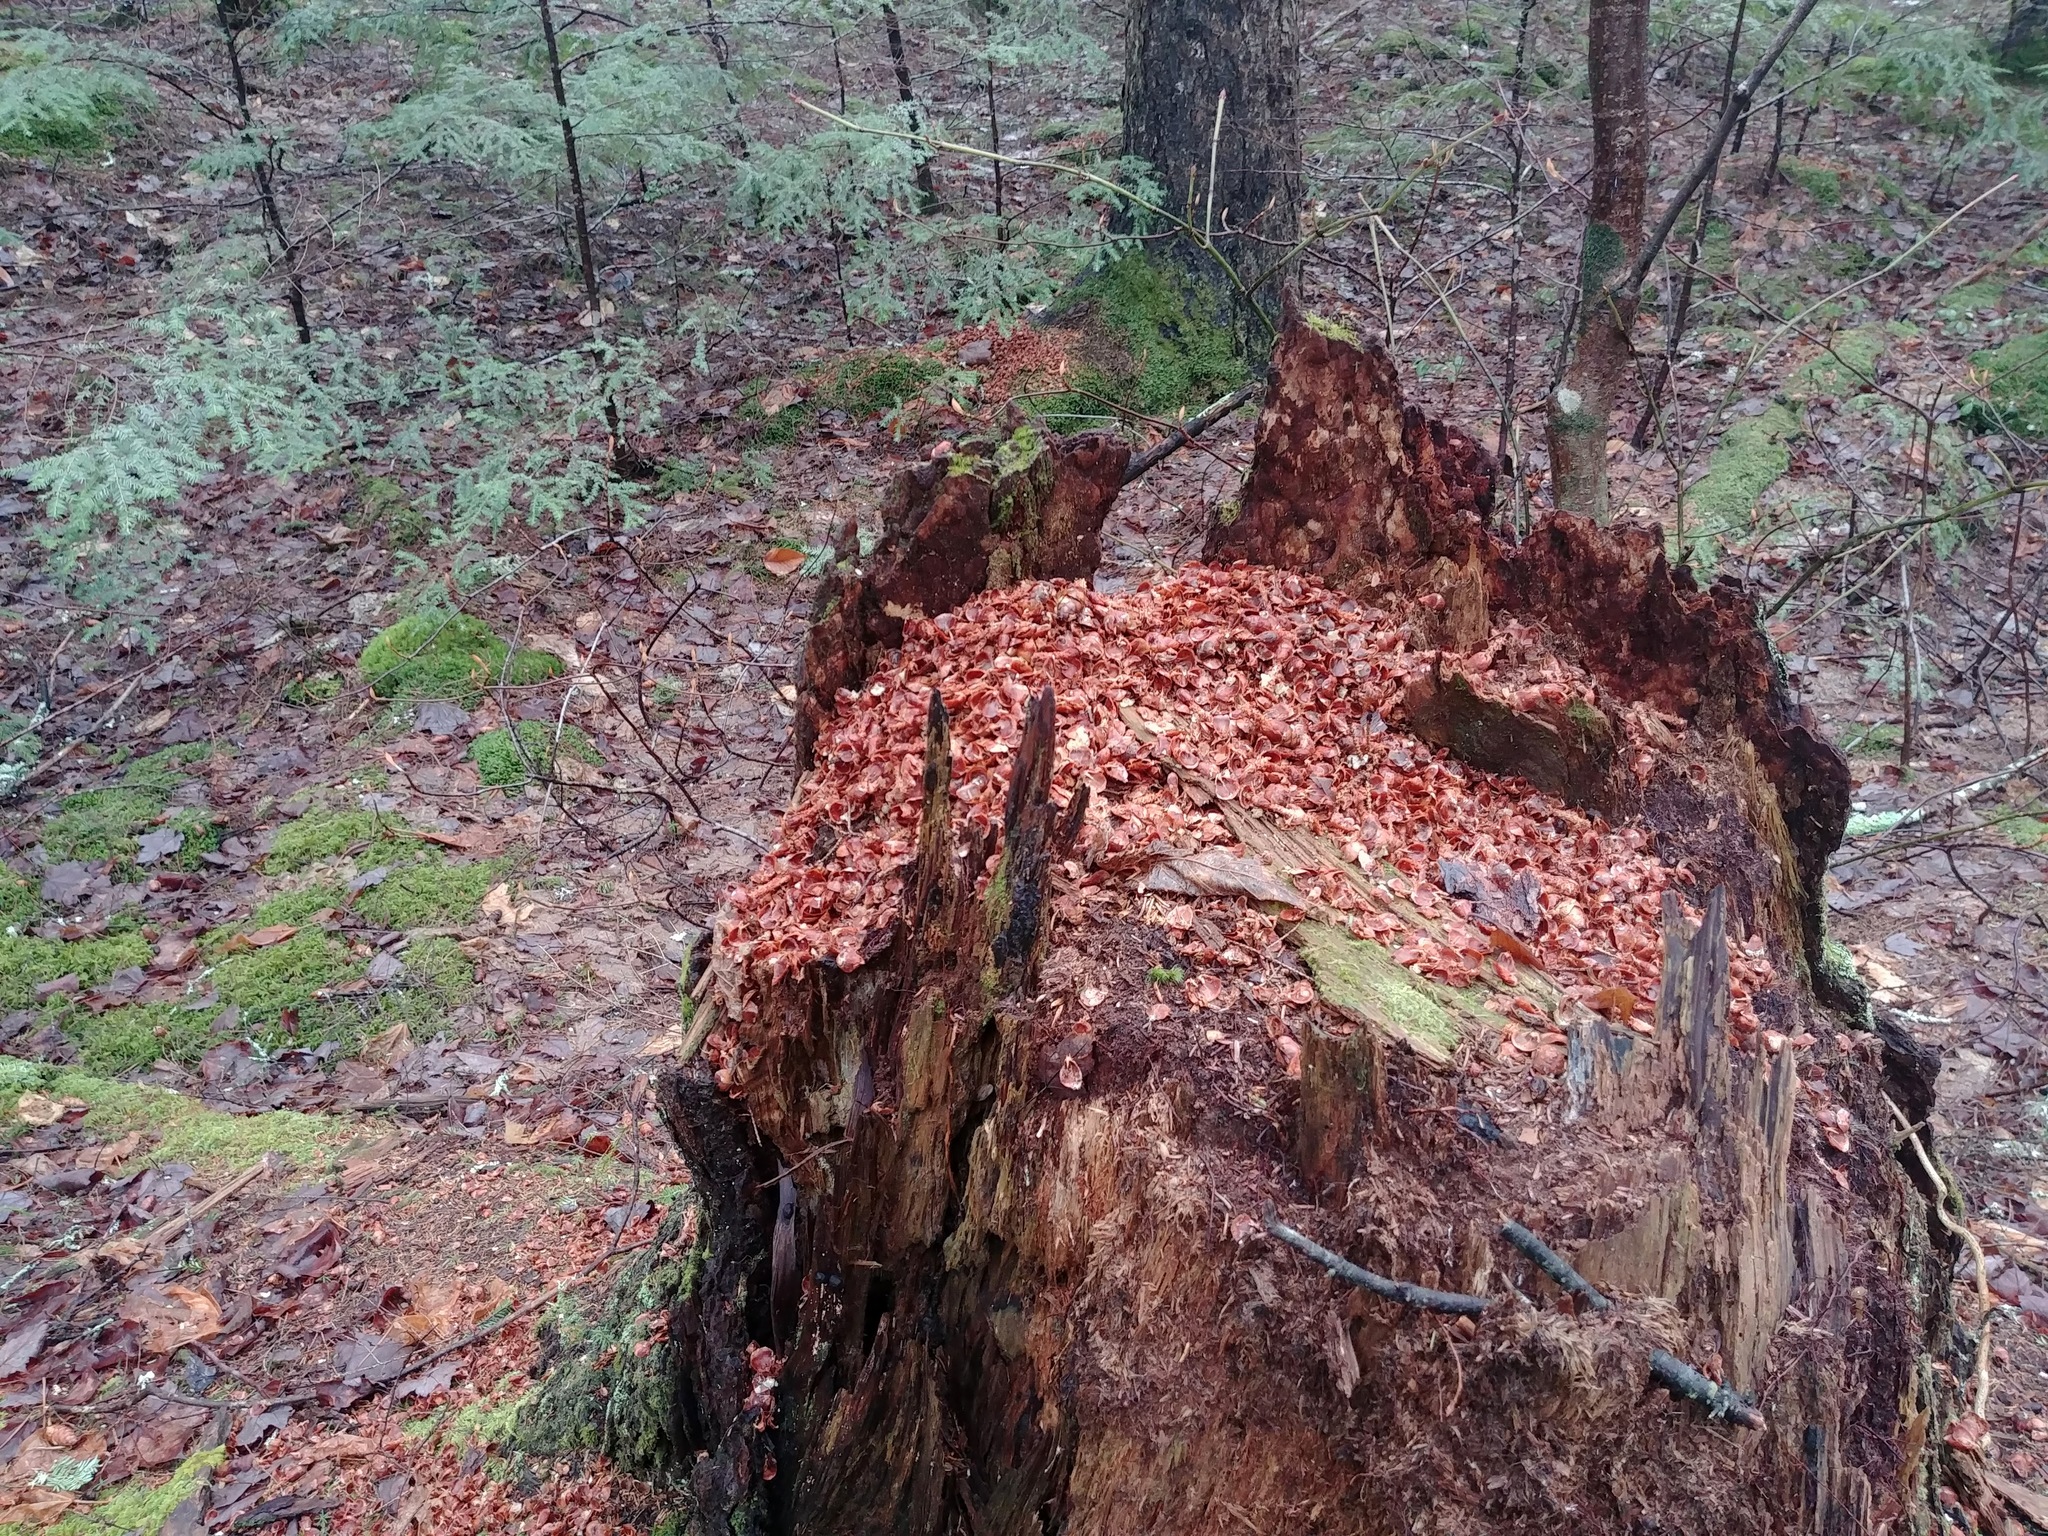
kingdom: Animalia
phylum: Chordata
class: Mammalia
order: Rodentia
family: Sciuridae
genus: Tamiasciurus
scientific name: Tamiasciurus hudsonicus
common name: Red squirrel
